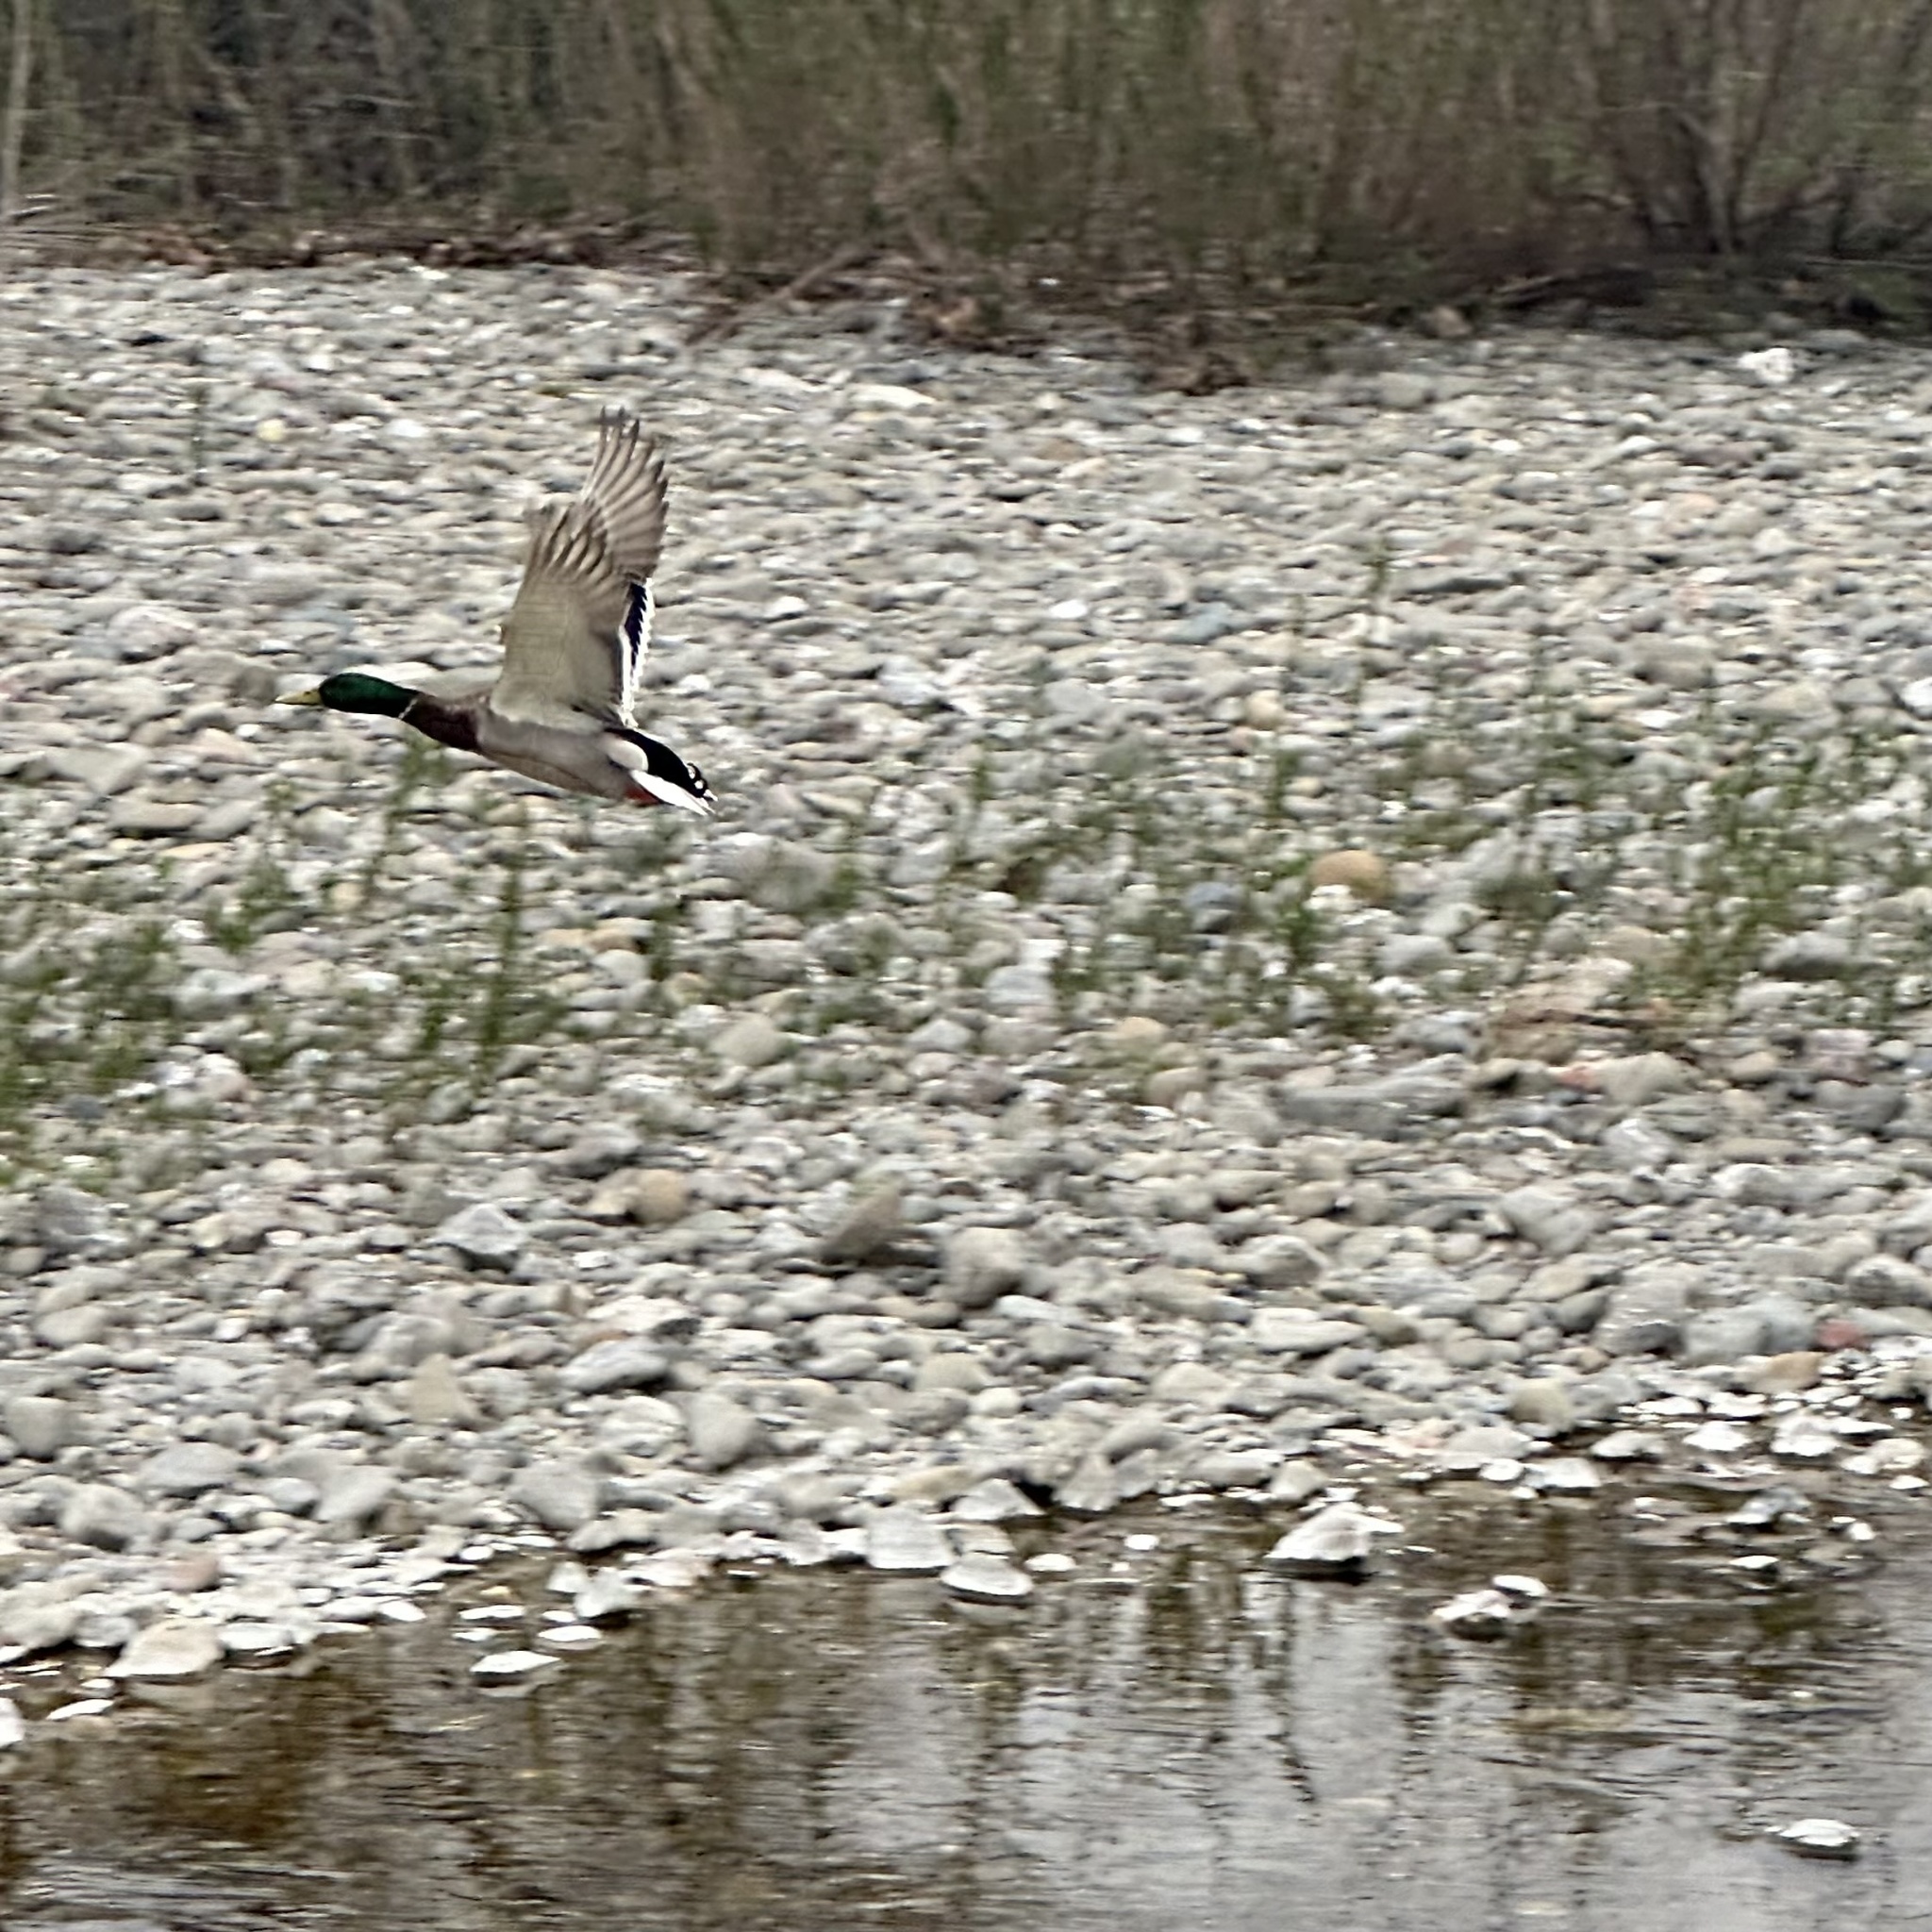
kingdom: Animalia
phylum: Chordata
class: Aves
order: Anseriformes
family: Anatidae
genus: Anas
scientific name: Anas platyrhynchos
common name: Mallard
